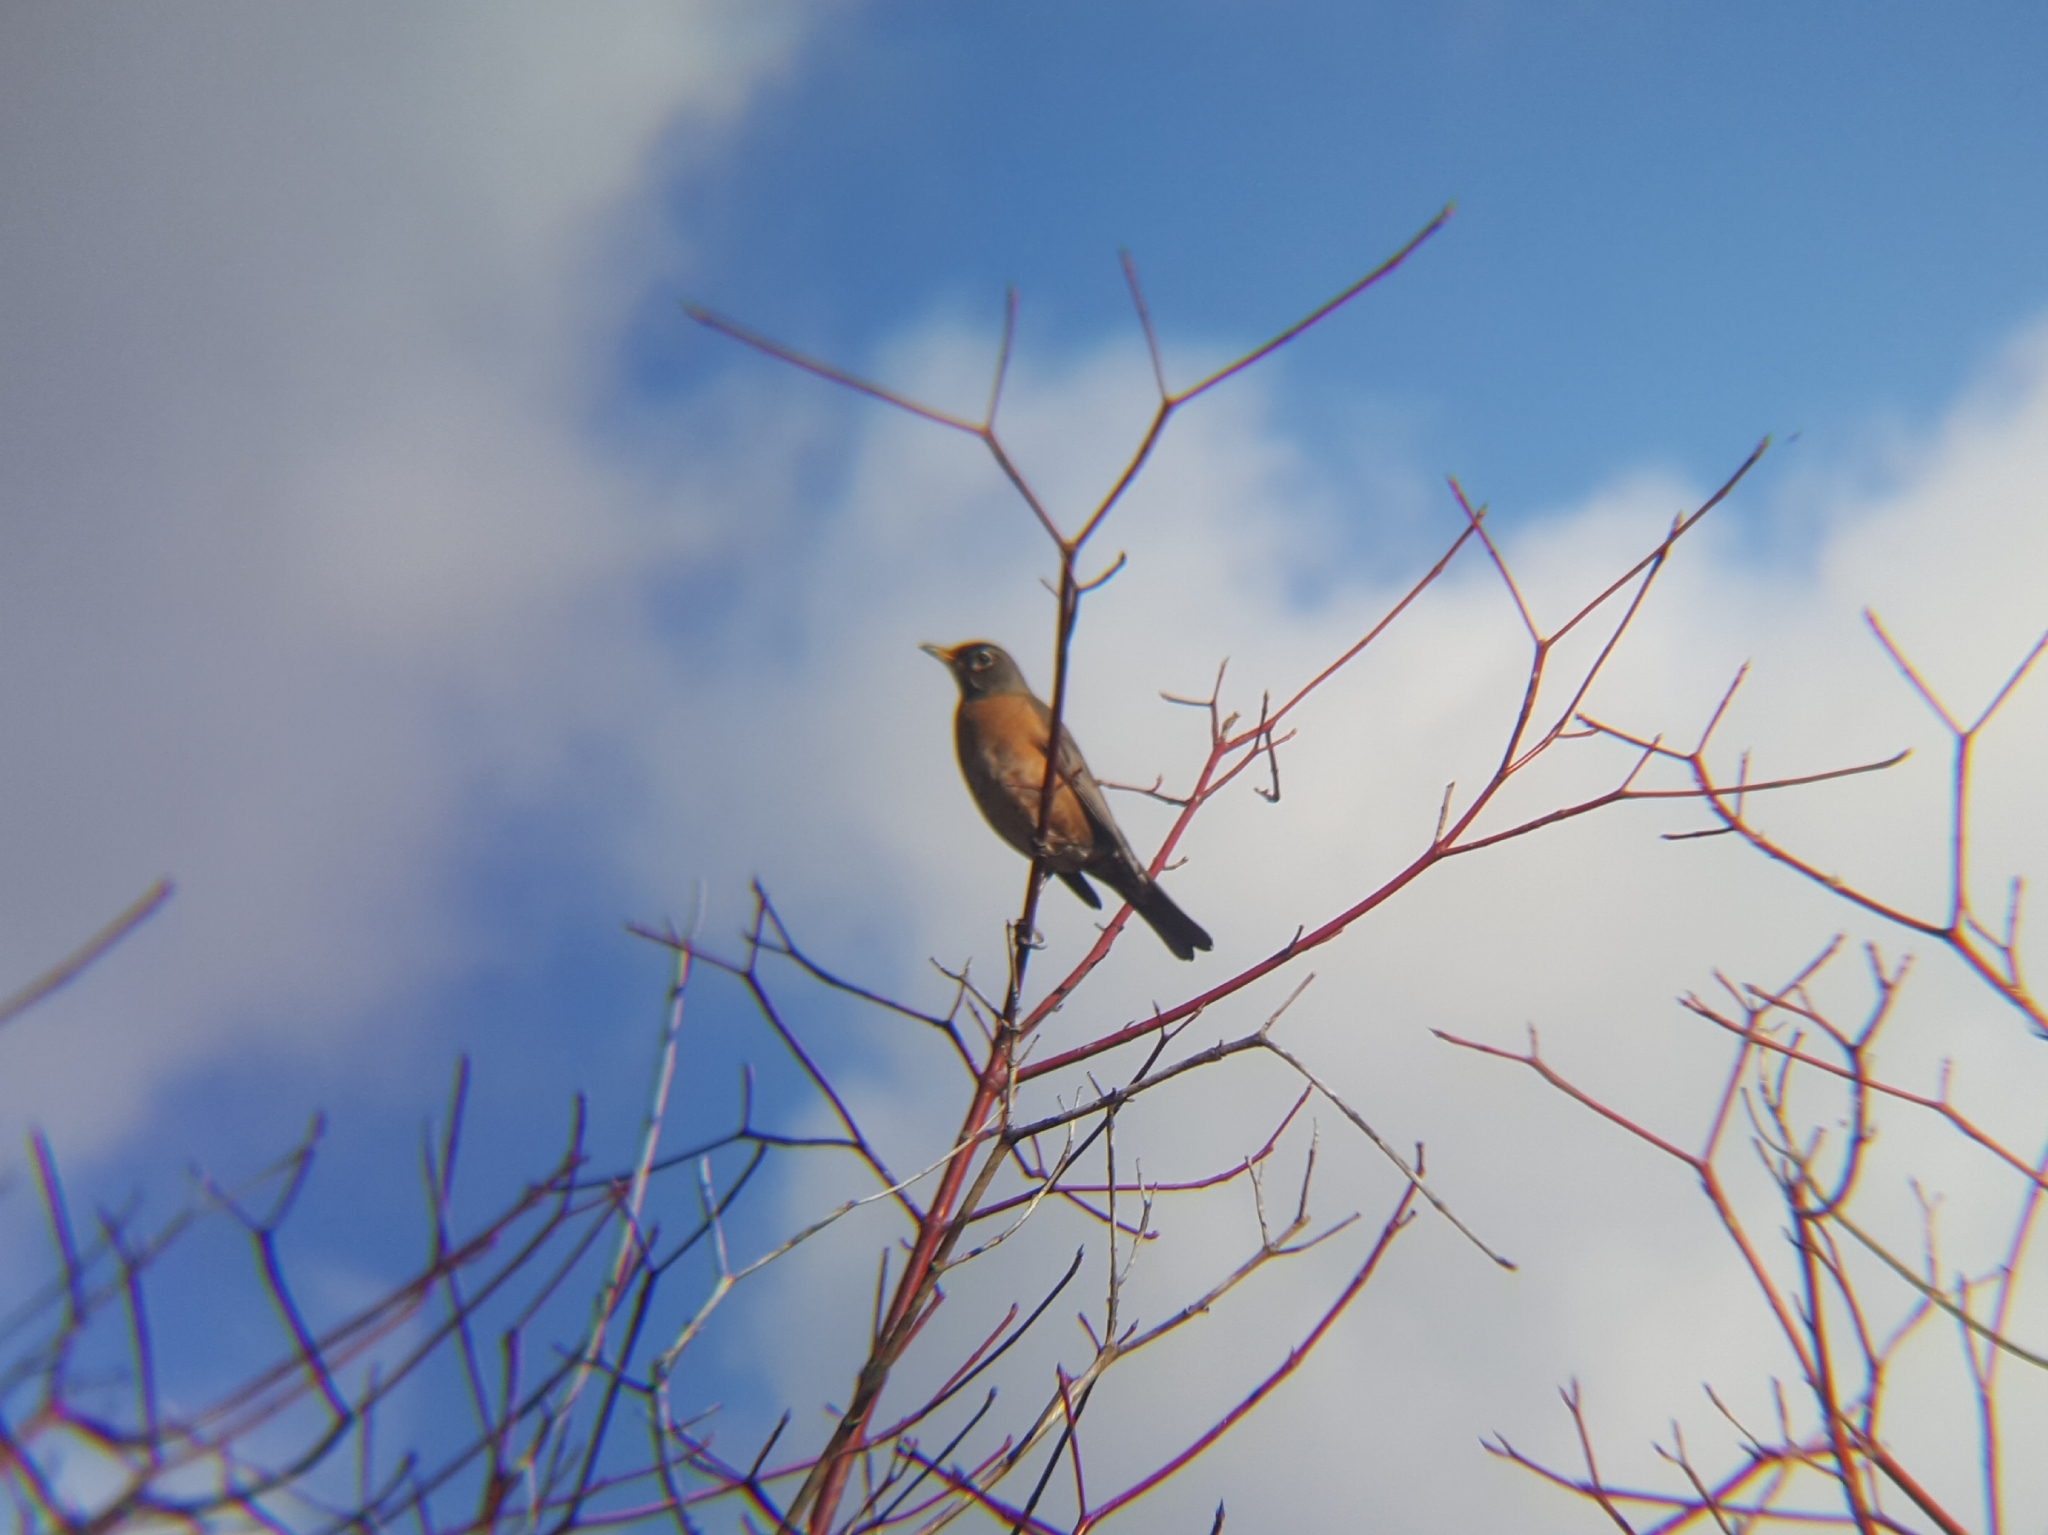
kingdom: Animalia
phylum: Chordata
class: Aves
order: Passeriformes
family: Turdidae
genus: Turdus
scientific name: Turdus migratorius
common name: American robin
